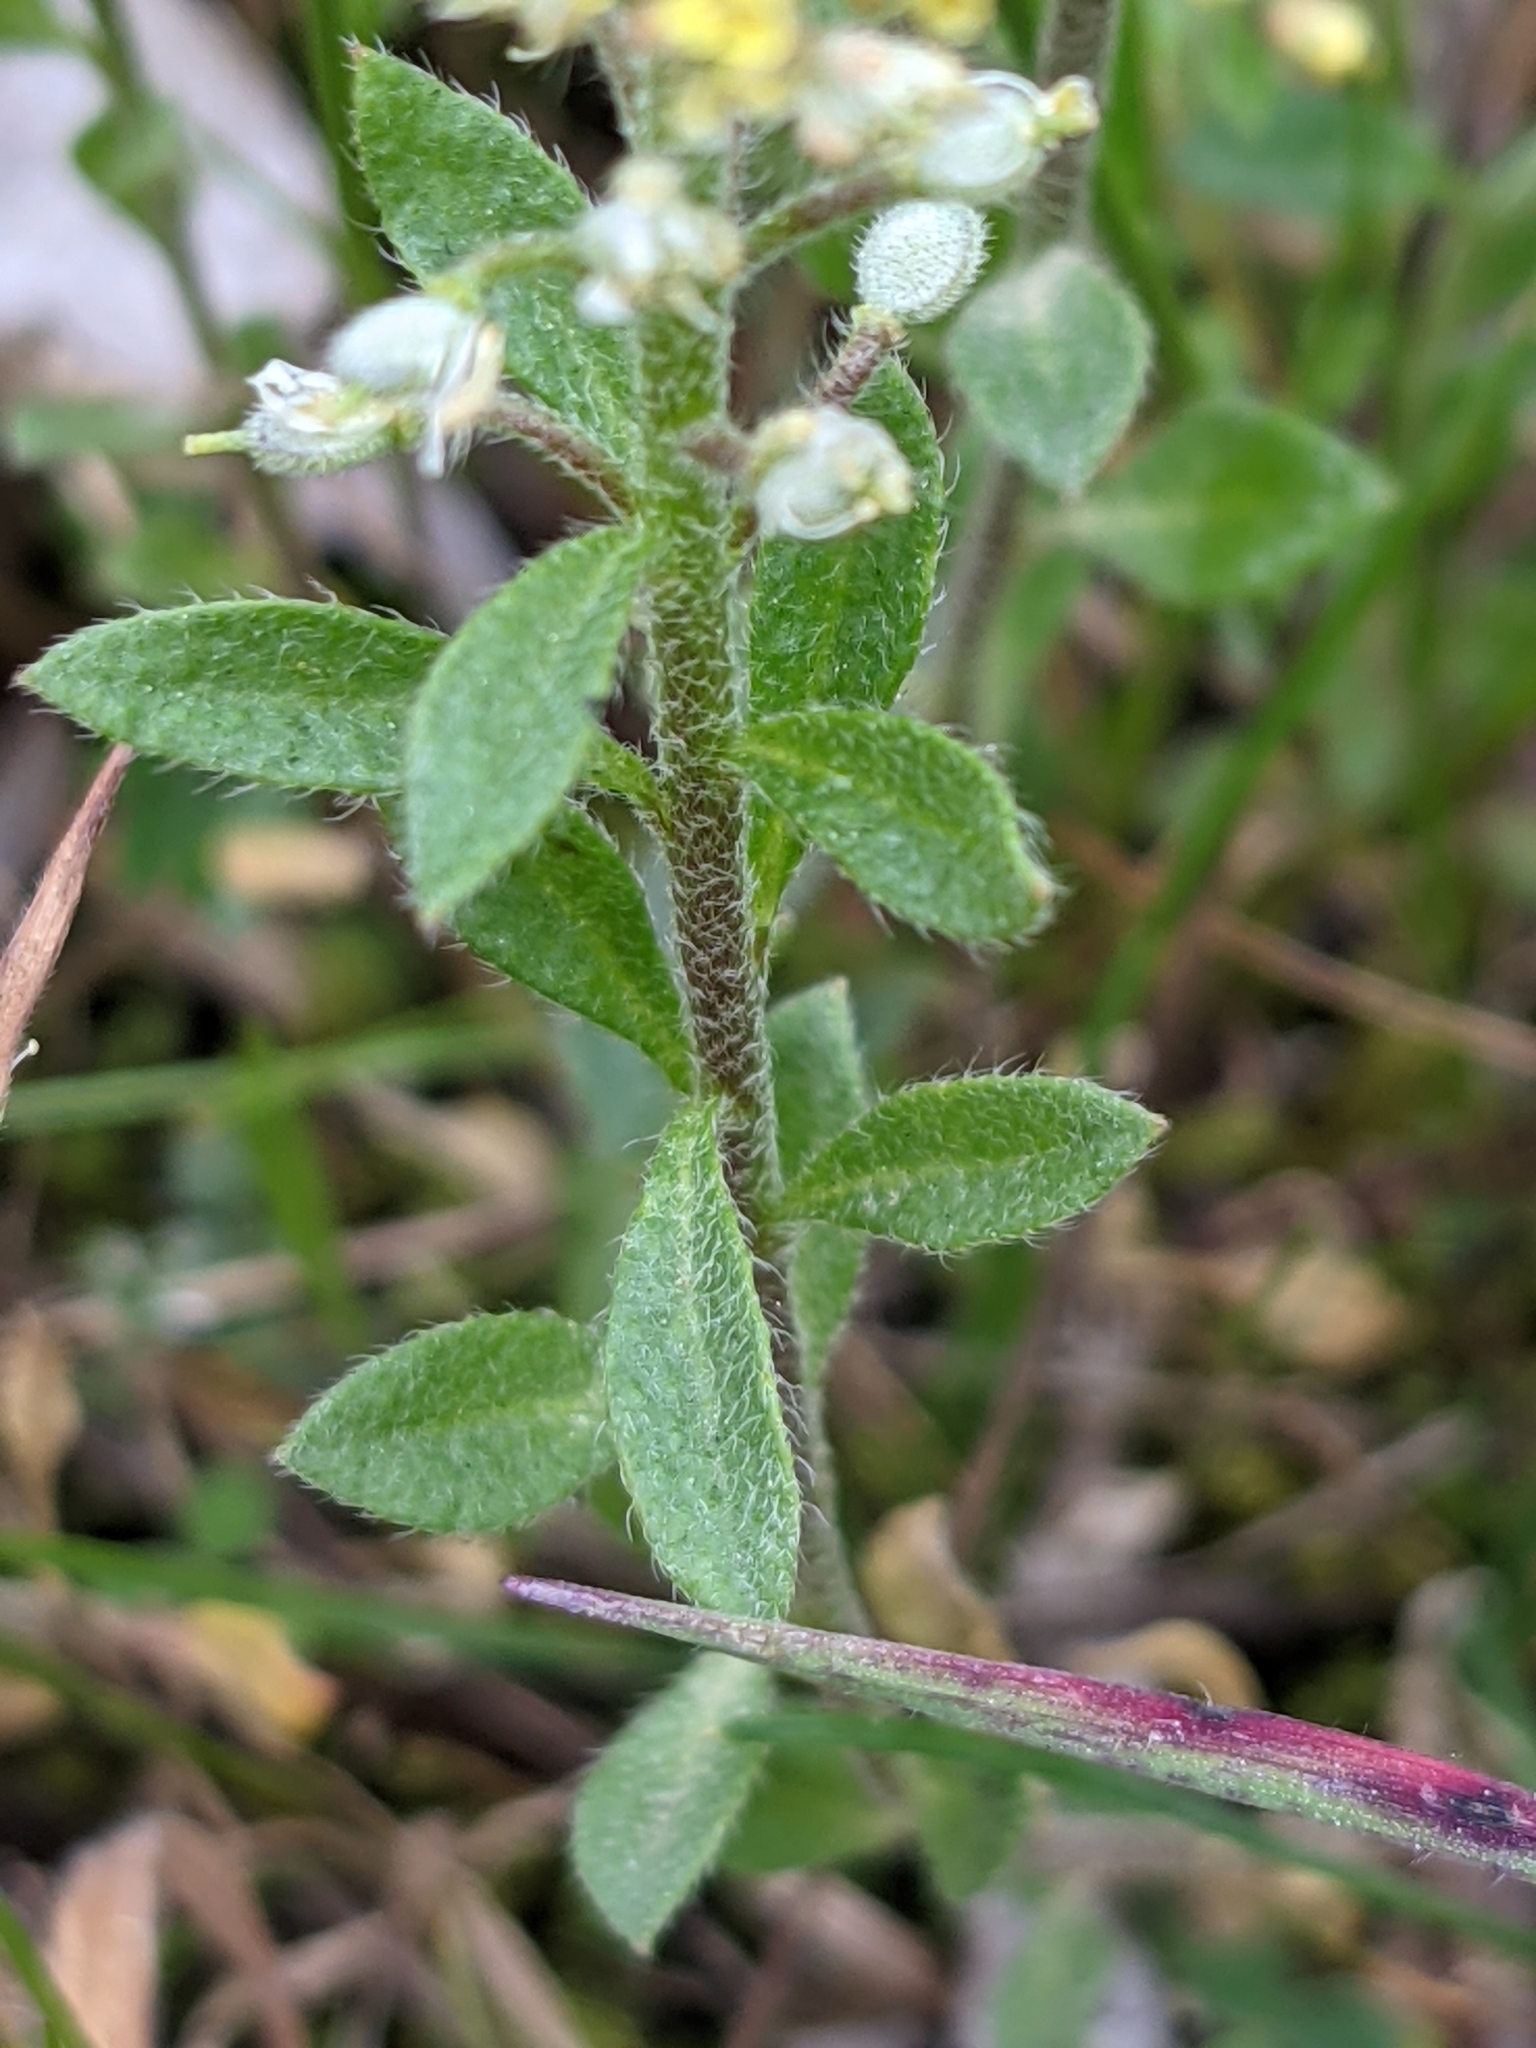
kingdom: Plantae
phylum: Tracheophyta
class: Magnoliopsida
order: Brassicales
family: Brassicaceae
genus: Alyssum
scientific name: Alyssum simplex
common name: Alyssum
